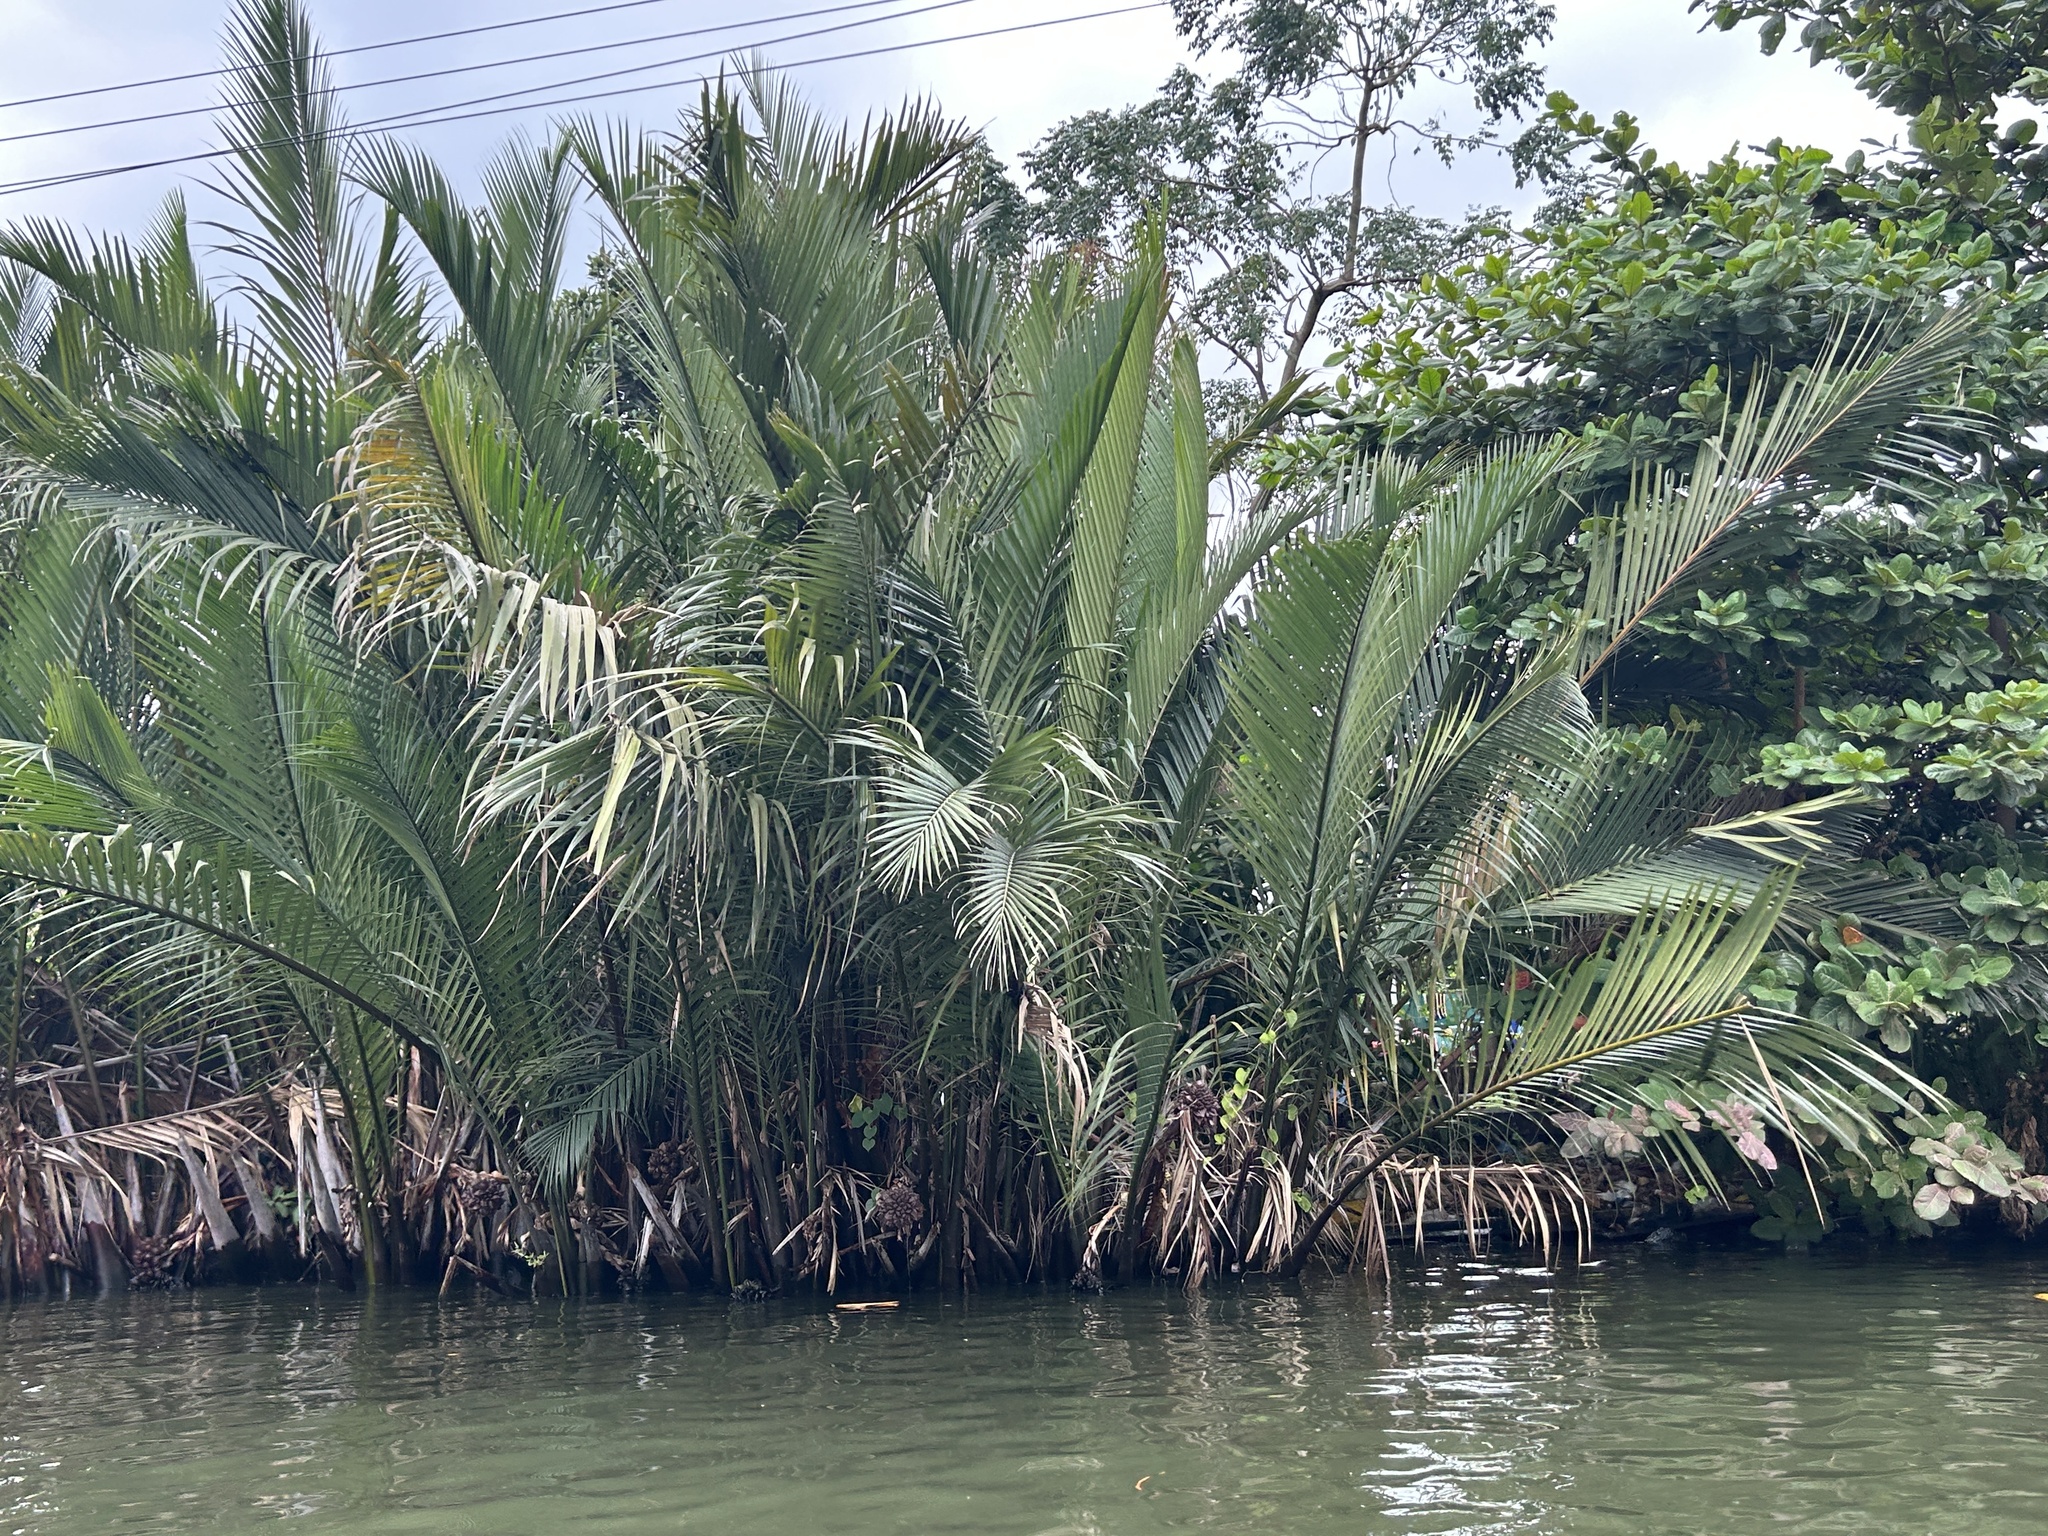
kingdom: Plantae
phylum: Tracheophyta
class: Liliopsida
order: Arecales
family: Arecaceae
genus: Nypa
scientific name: Nypa fruticans
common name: Mangrove palm
